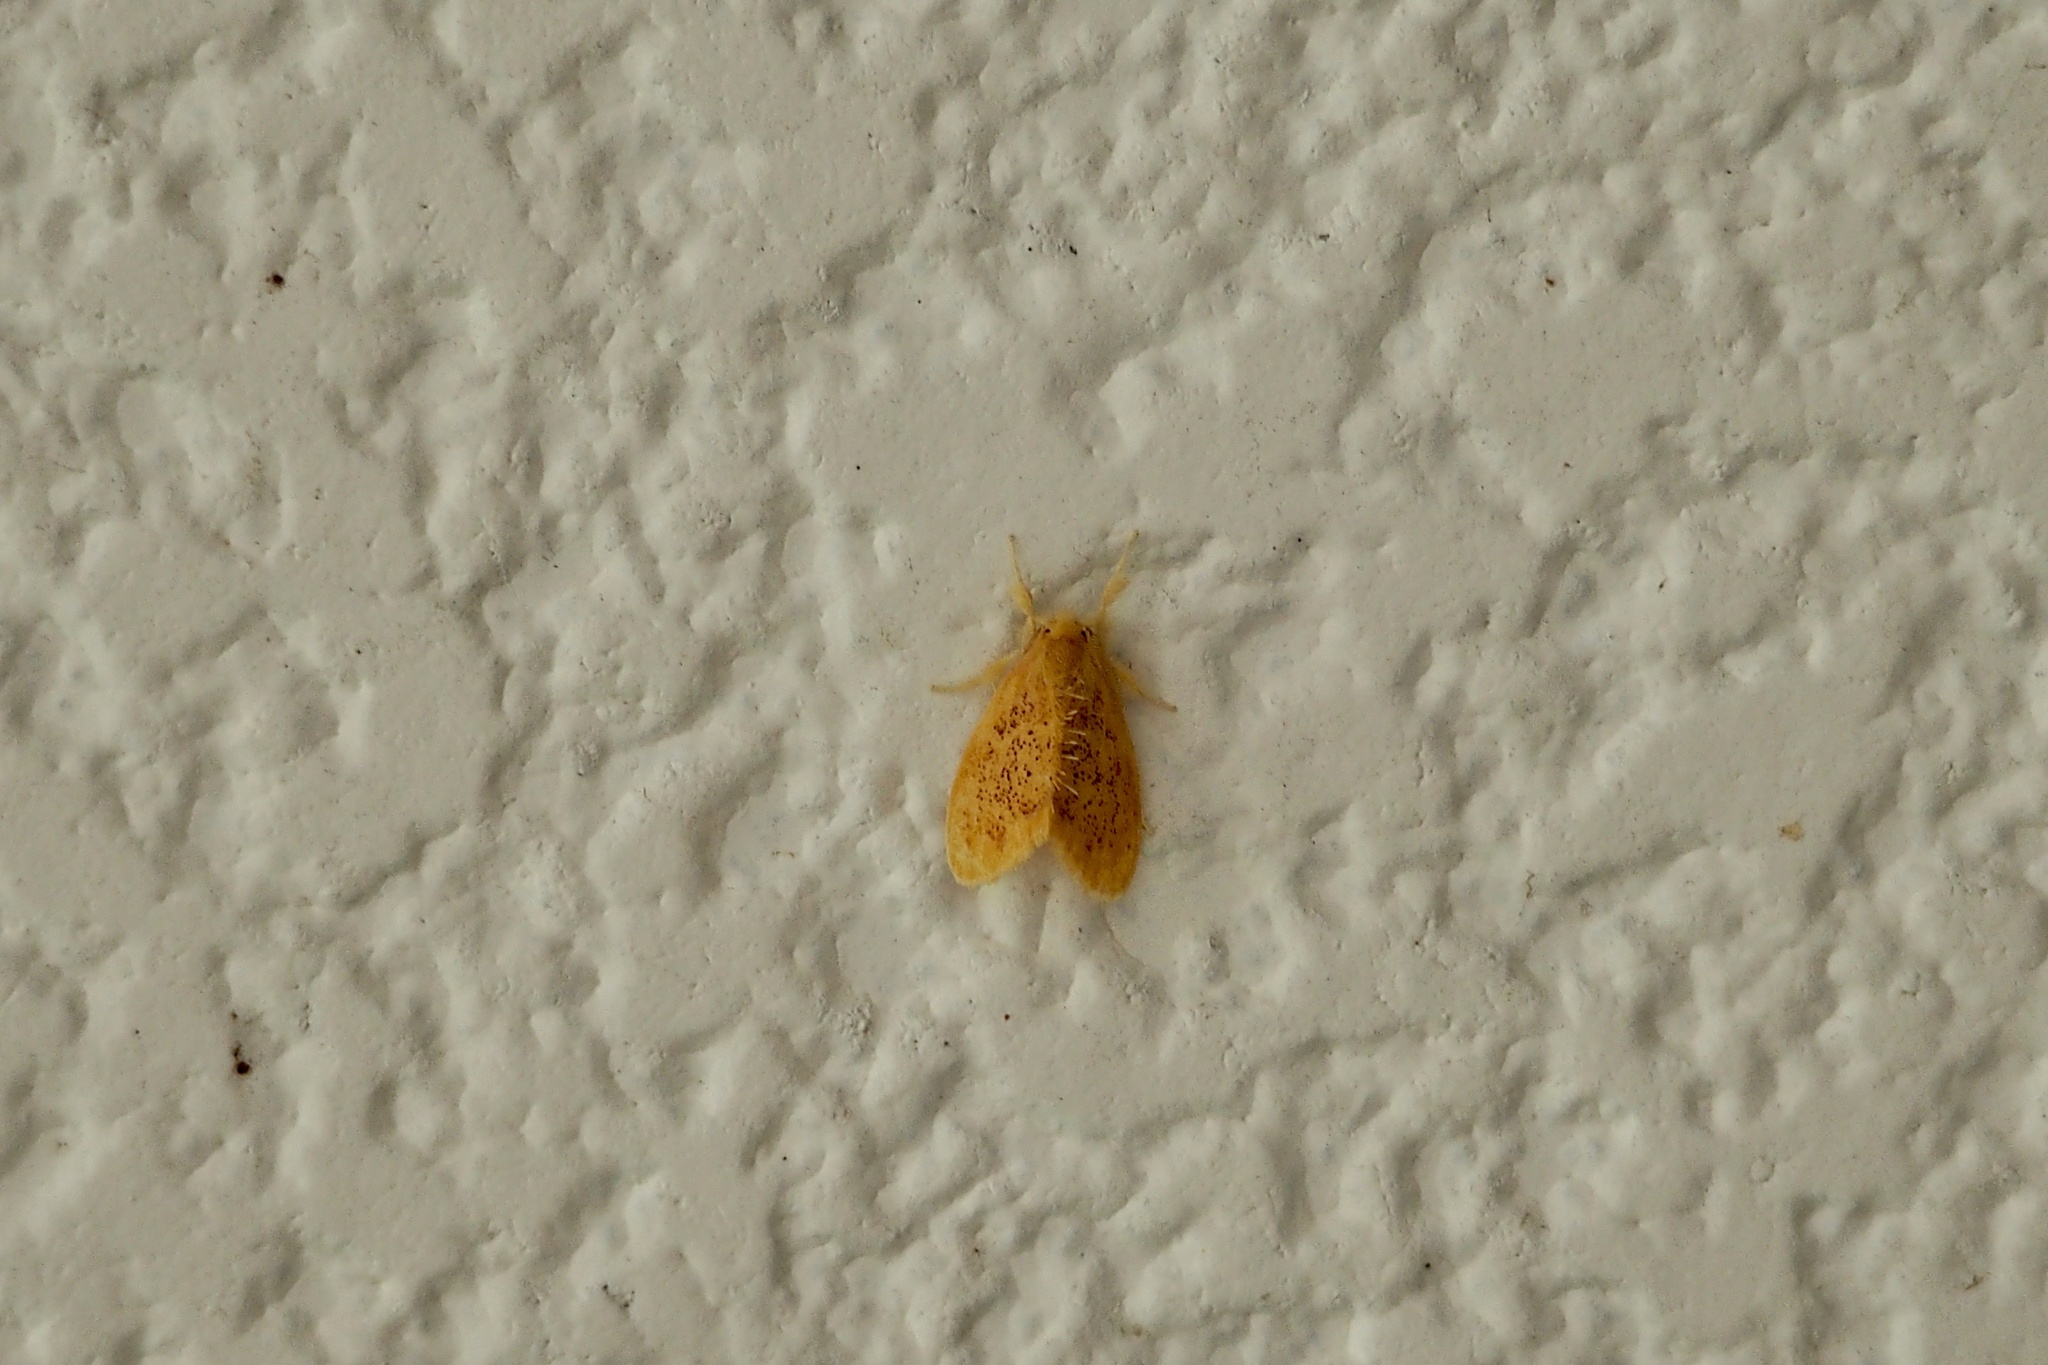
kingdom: Animalia
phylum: Arthropoda
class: Insecta
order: Lepidoptera
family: Erebidae
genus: Somena
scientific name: Somena
